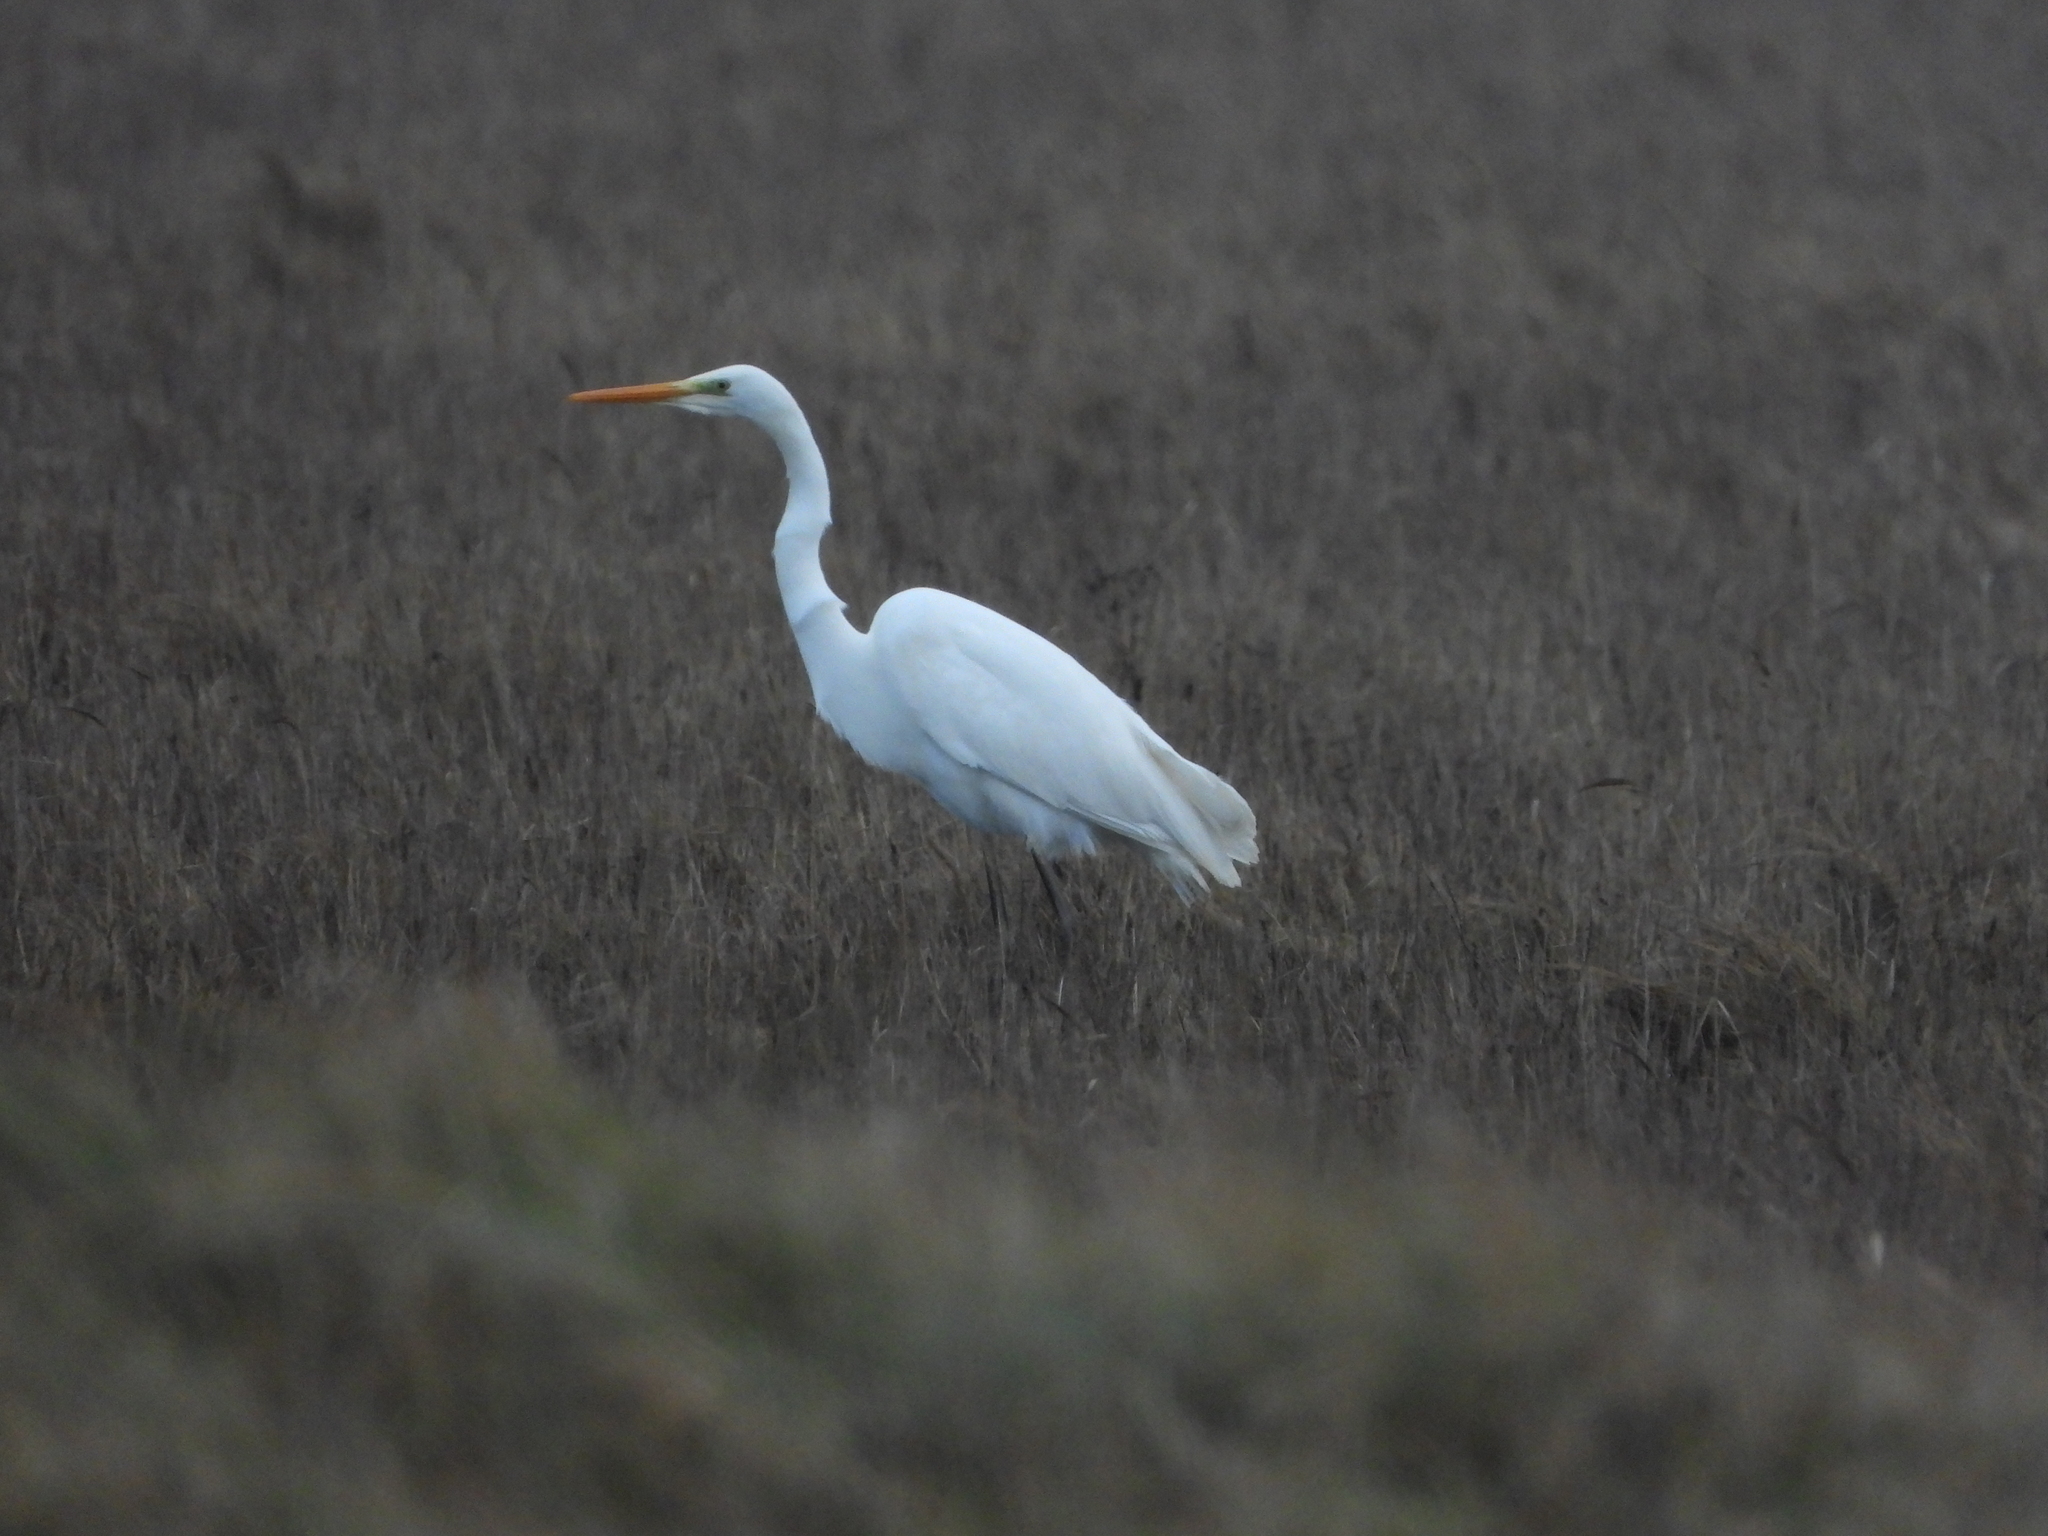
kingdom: Animalia
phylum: Chordata
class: Aves
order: Pelecaniformes
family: Ardeidae
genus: Ardea
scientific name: Ardea alba
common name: Great egret
